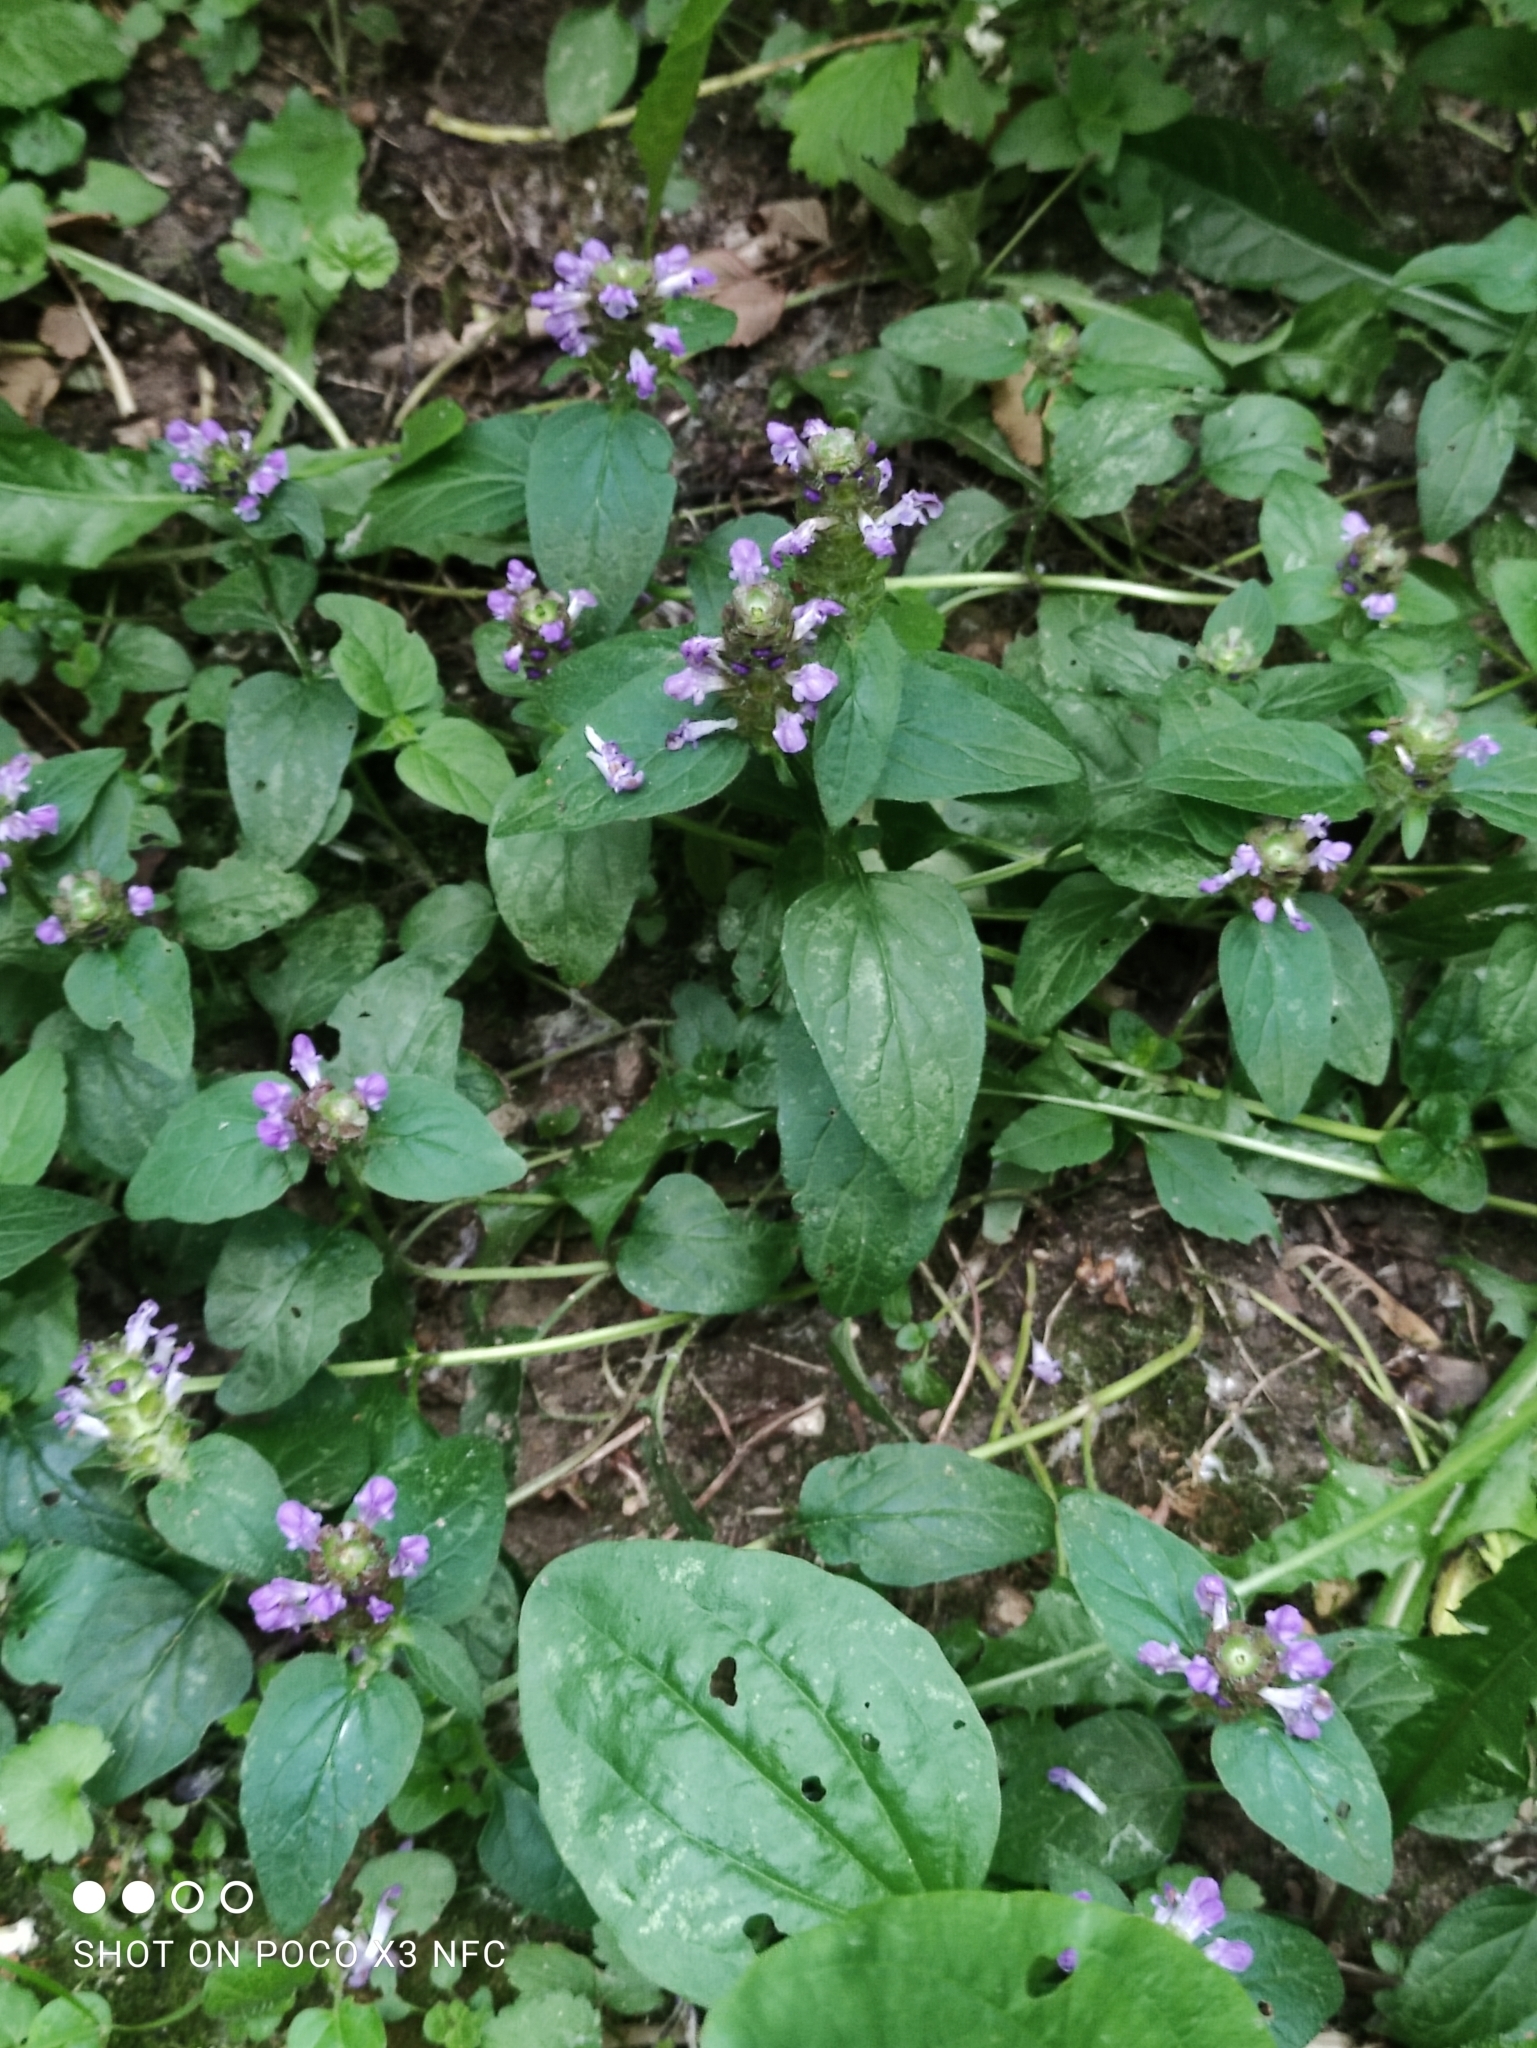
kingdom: Plantae
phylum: Tracheophyta
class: Magnoliopsida
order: Lamiales
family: Lamiaceae
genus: Prunella
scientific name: Prunella vulgaris
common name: Heal-all
